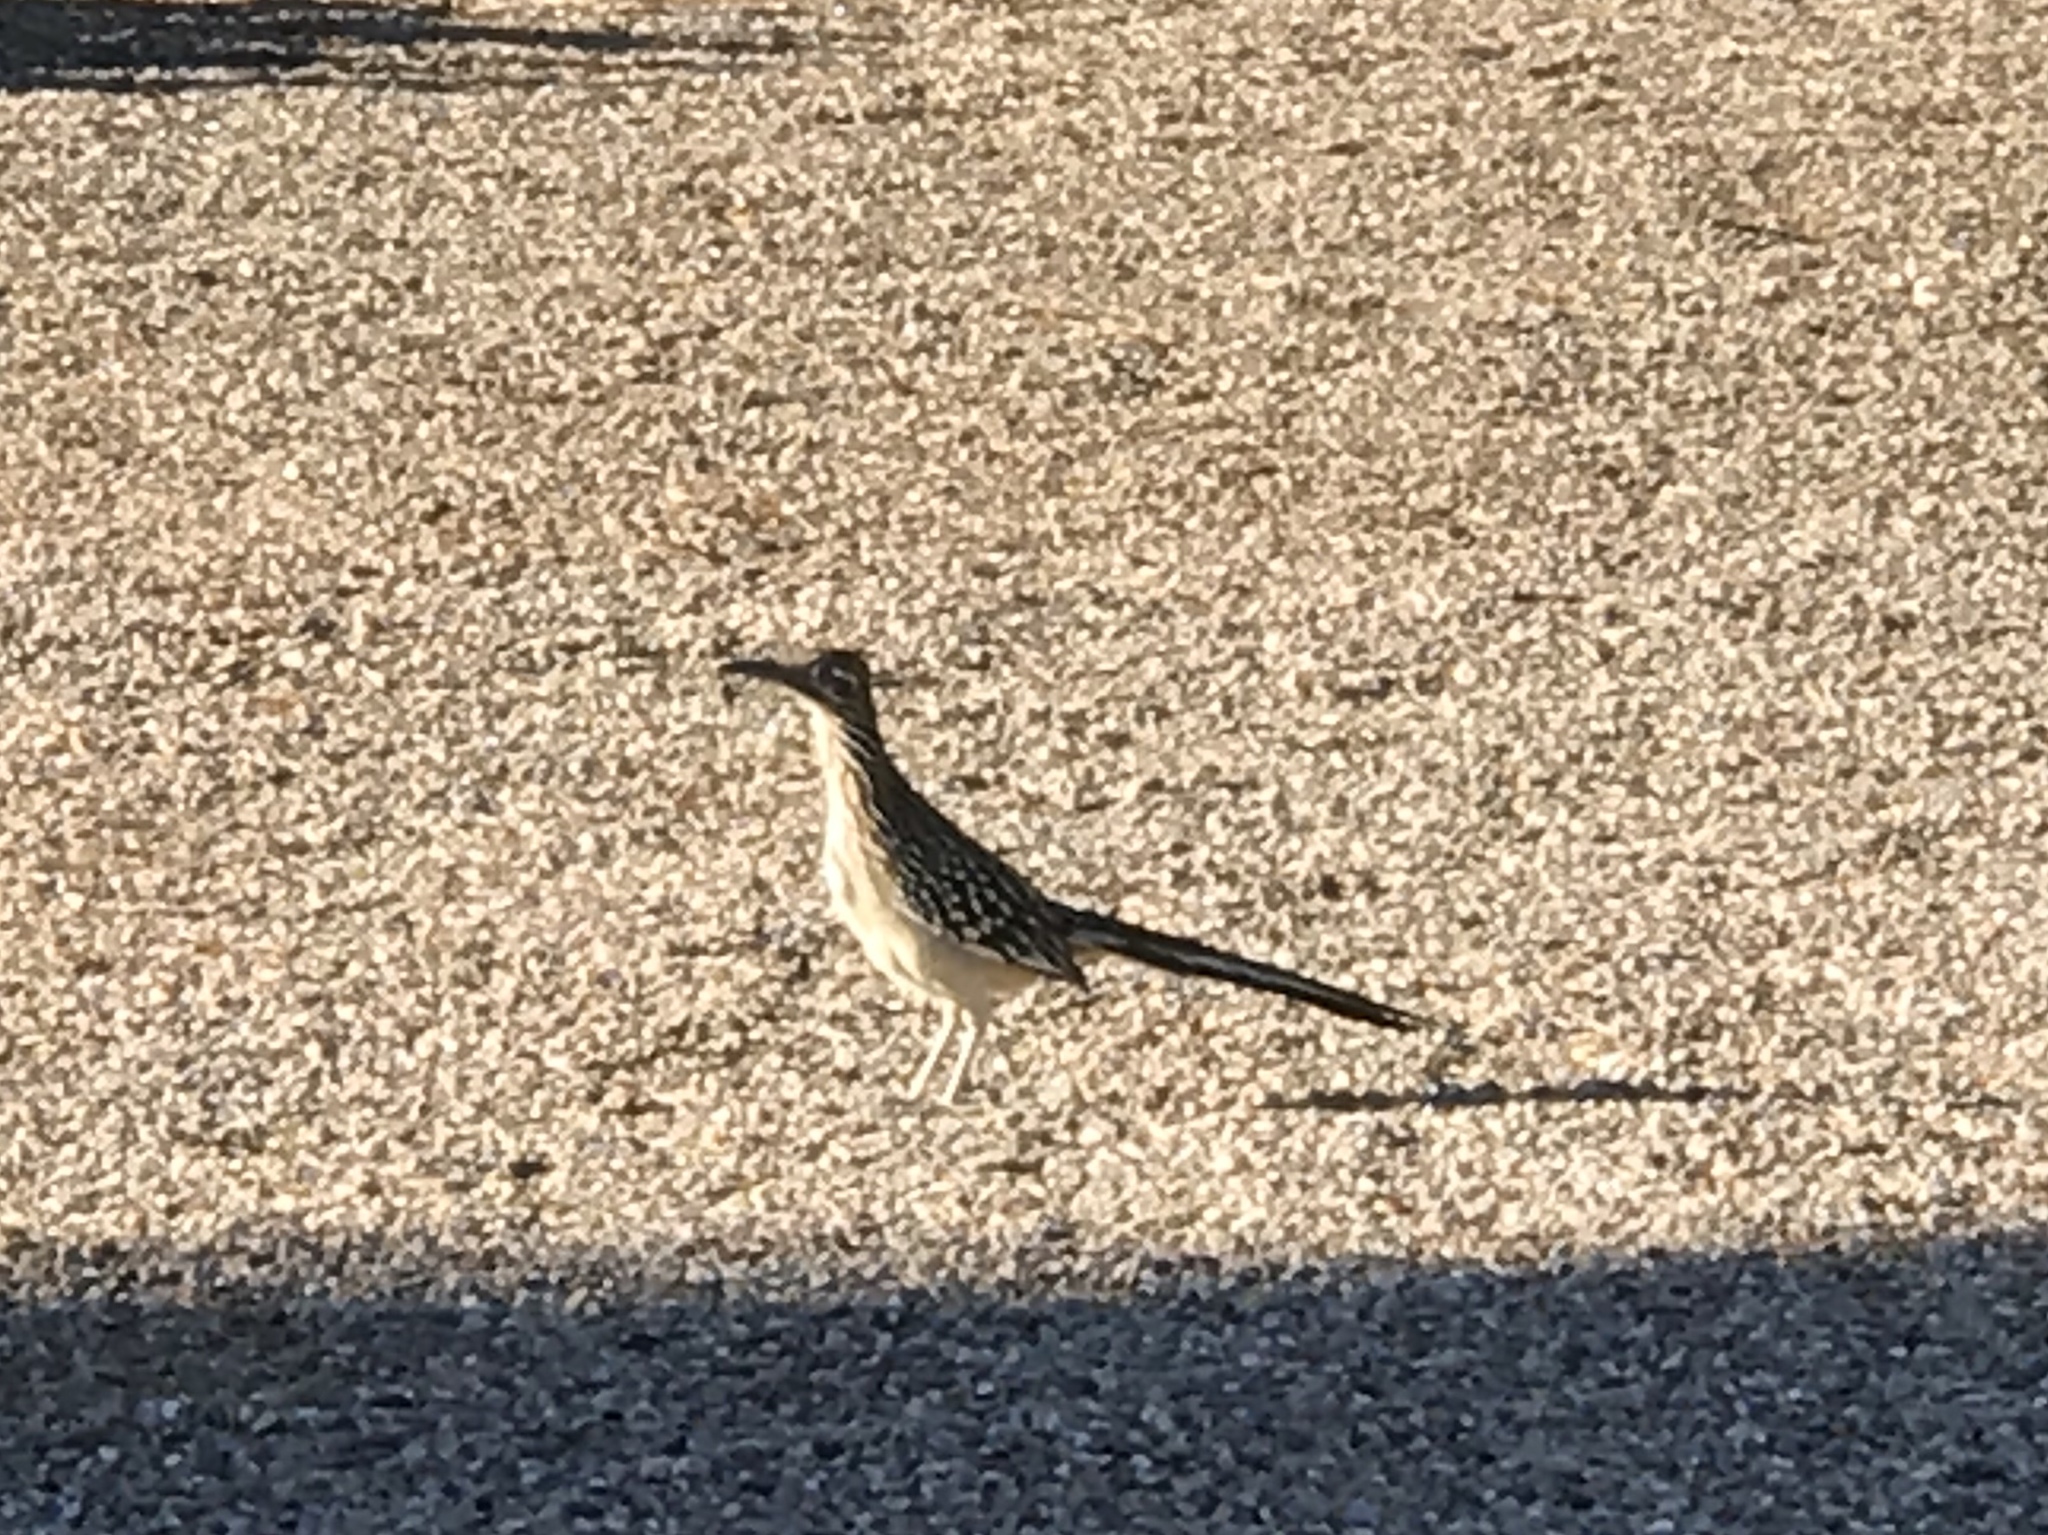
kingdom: Animalia
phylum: Chordata
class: Aves
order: Cuculiformes
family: Cuculidae
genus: Geococcyx
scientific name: Geococcyx californianus
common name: Greater roadrunner
